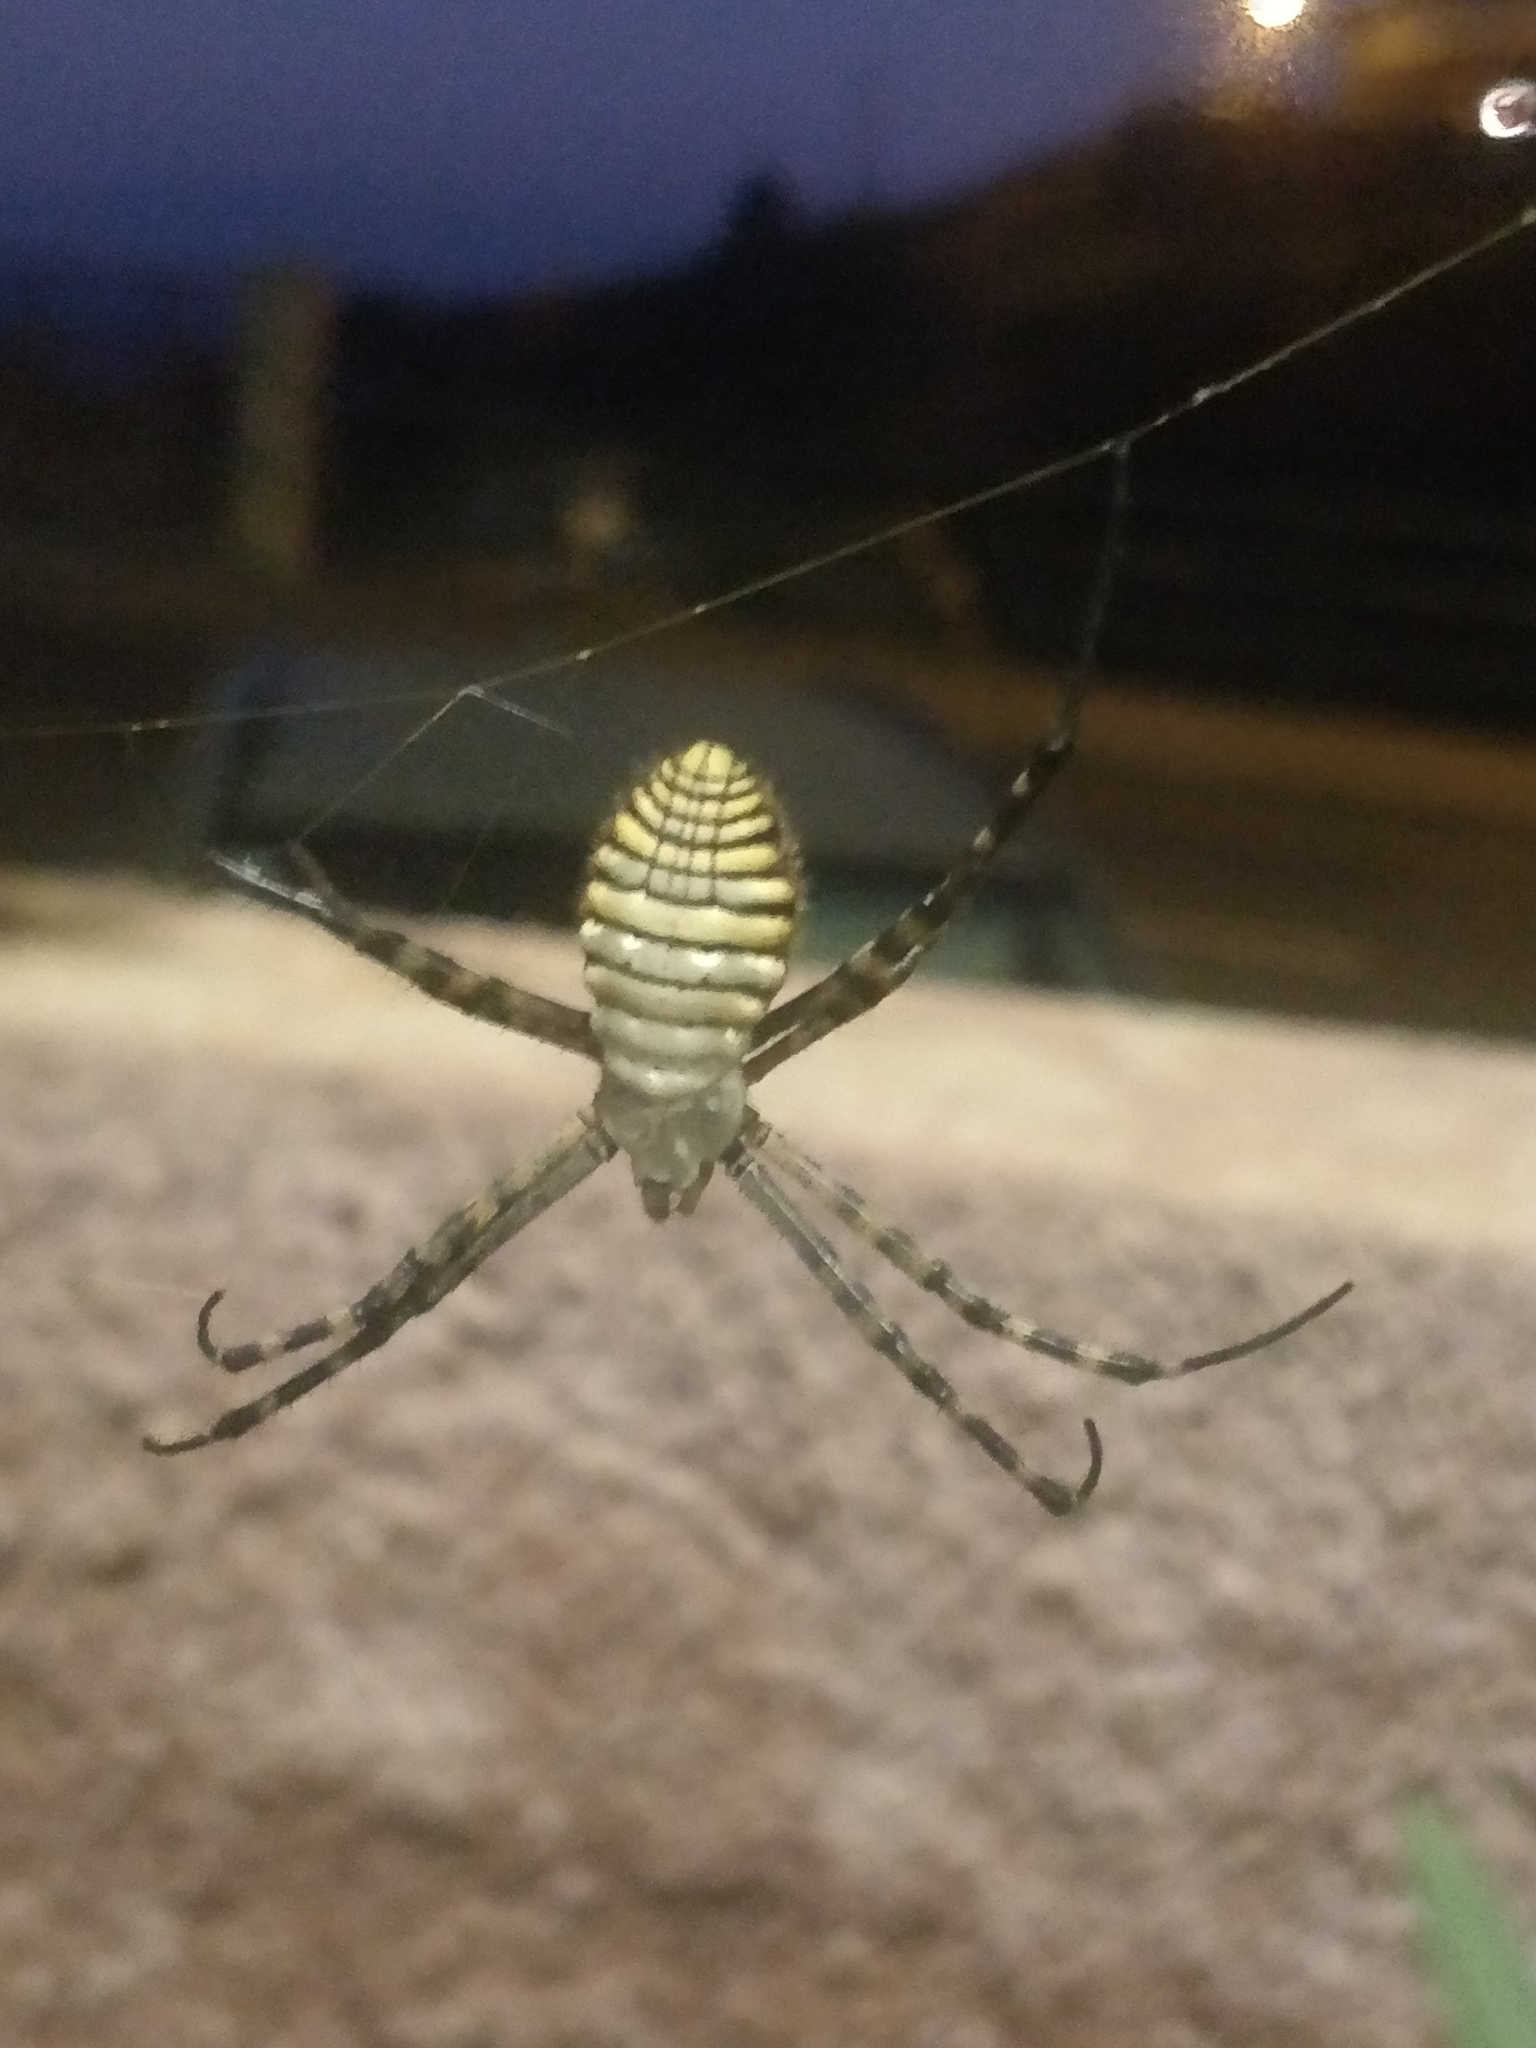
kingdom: Animalia
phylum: Arthropoda
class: Arachnida
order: Araneae
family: Araneidae
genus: Argiope
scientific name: Argiope trifasciata
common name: Banded garden spider
